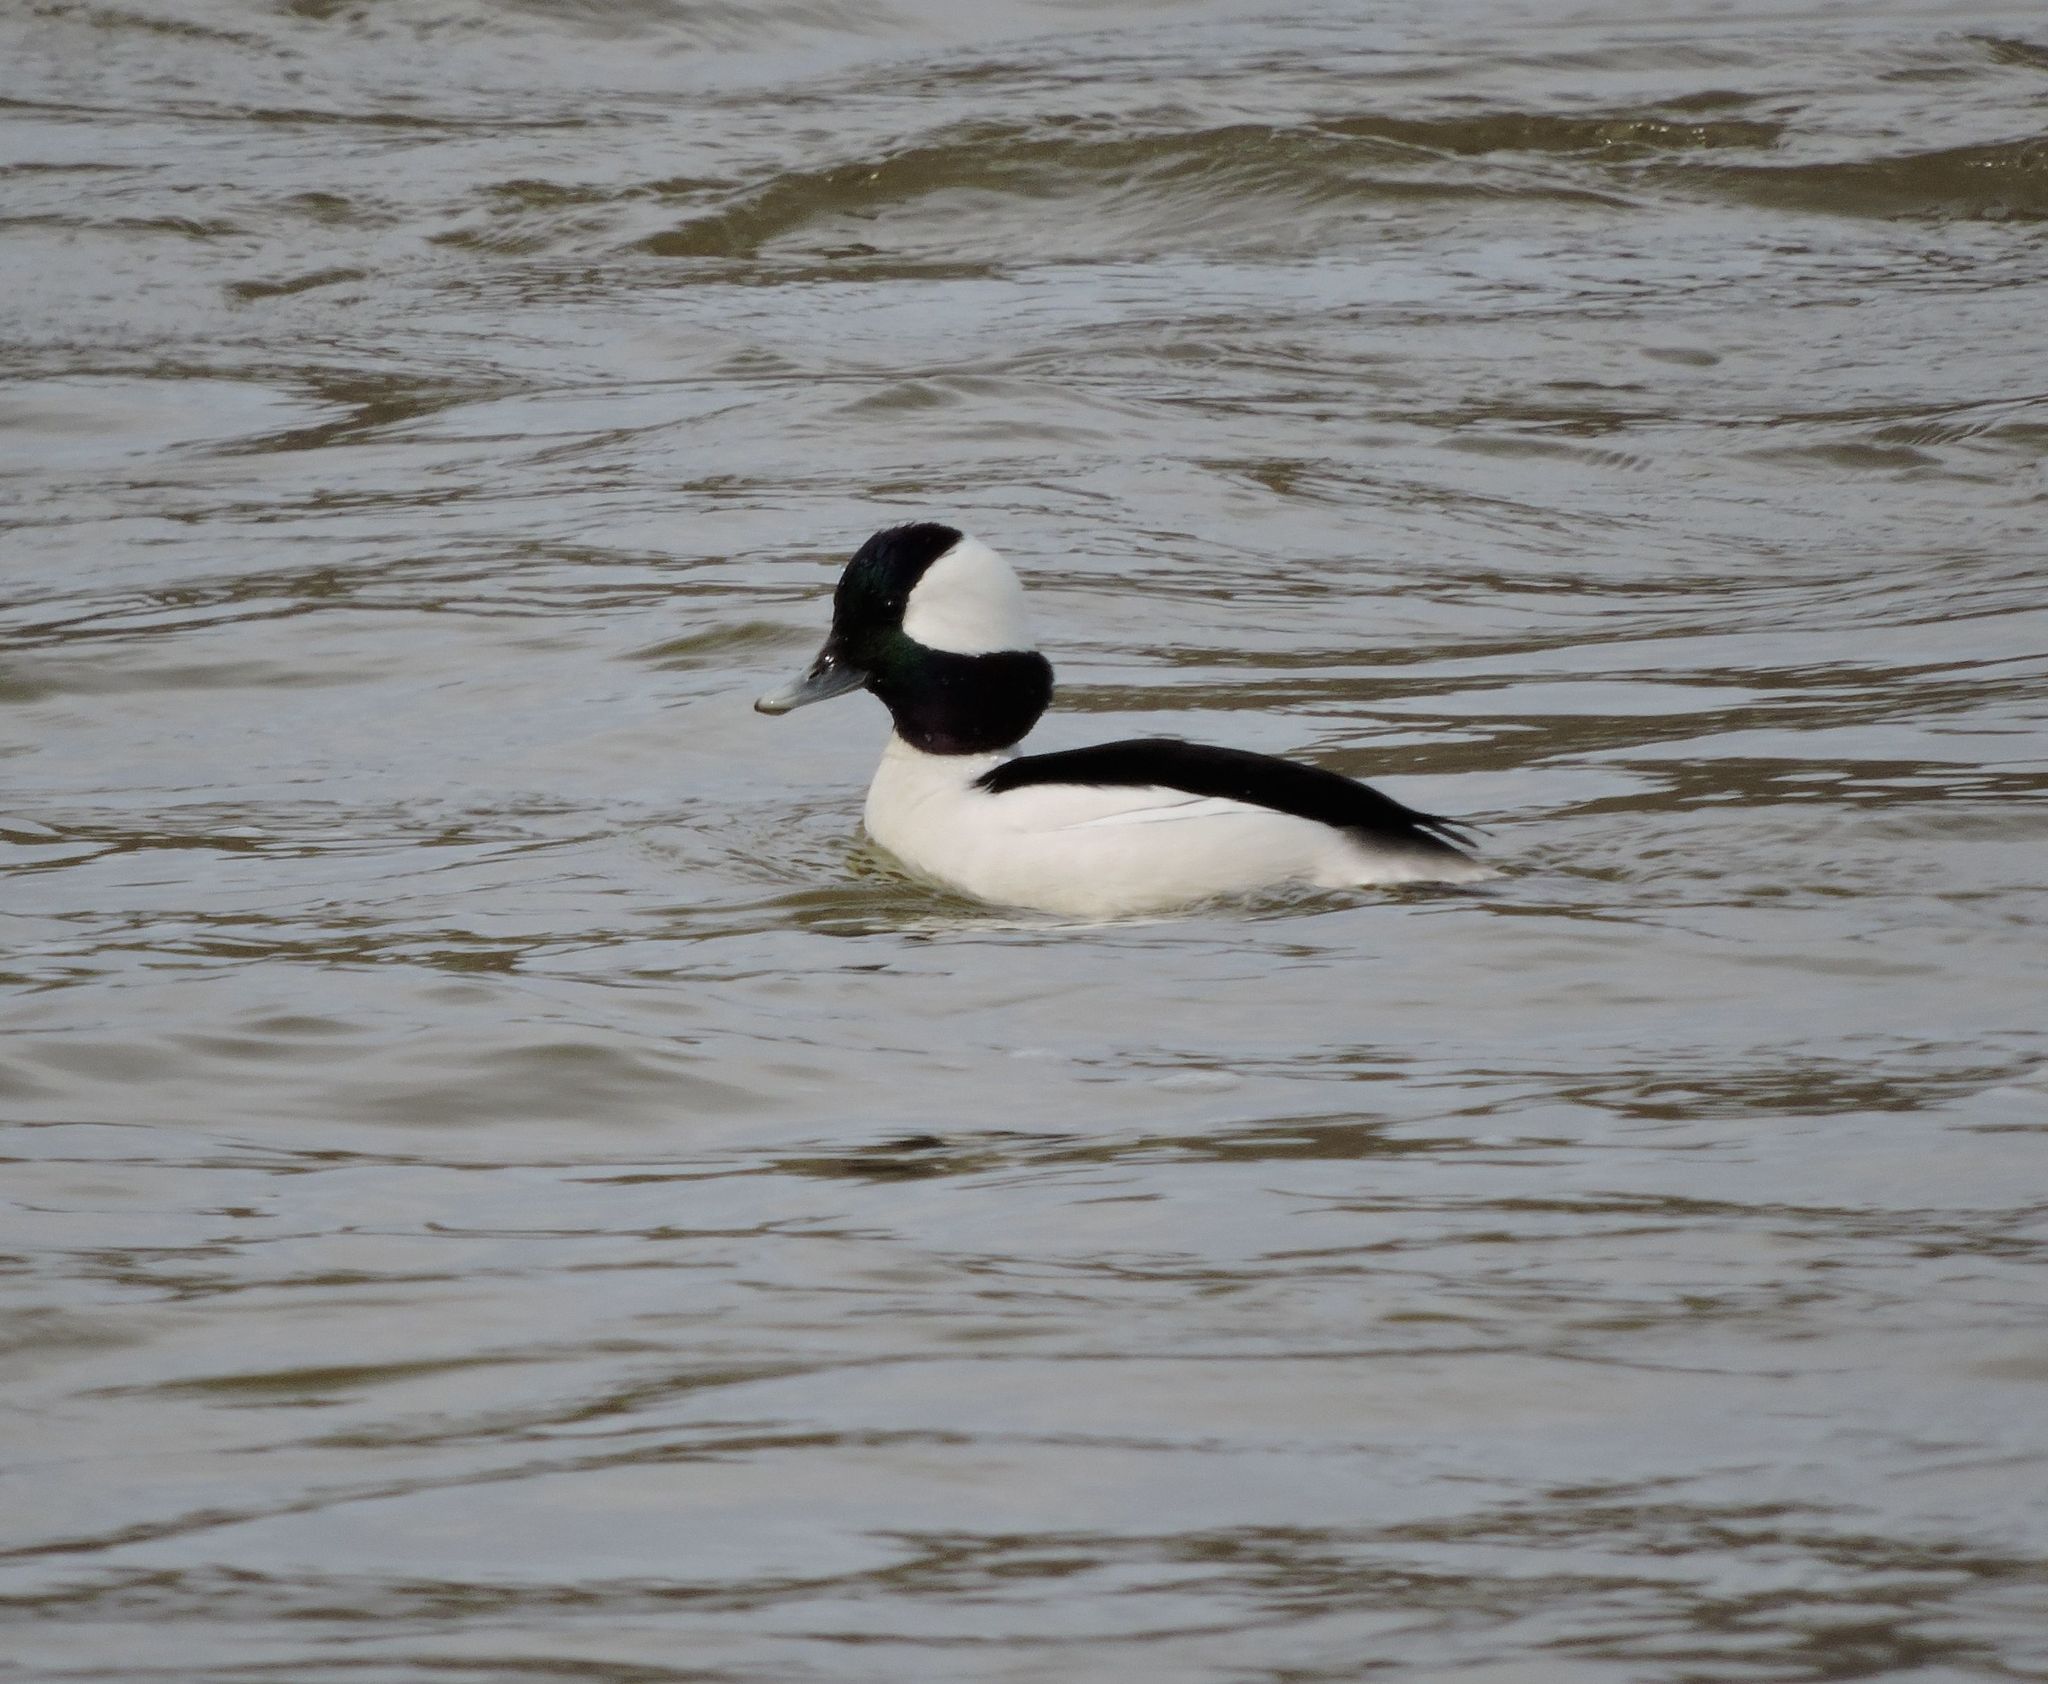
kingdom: Animalia
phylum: Chordata
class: Aves
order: Anseriformes
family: Anatidae
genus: Bucephala
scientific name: Bucephala albeola
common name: Bufflehead
